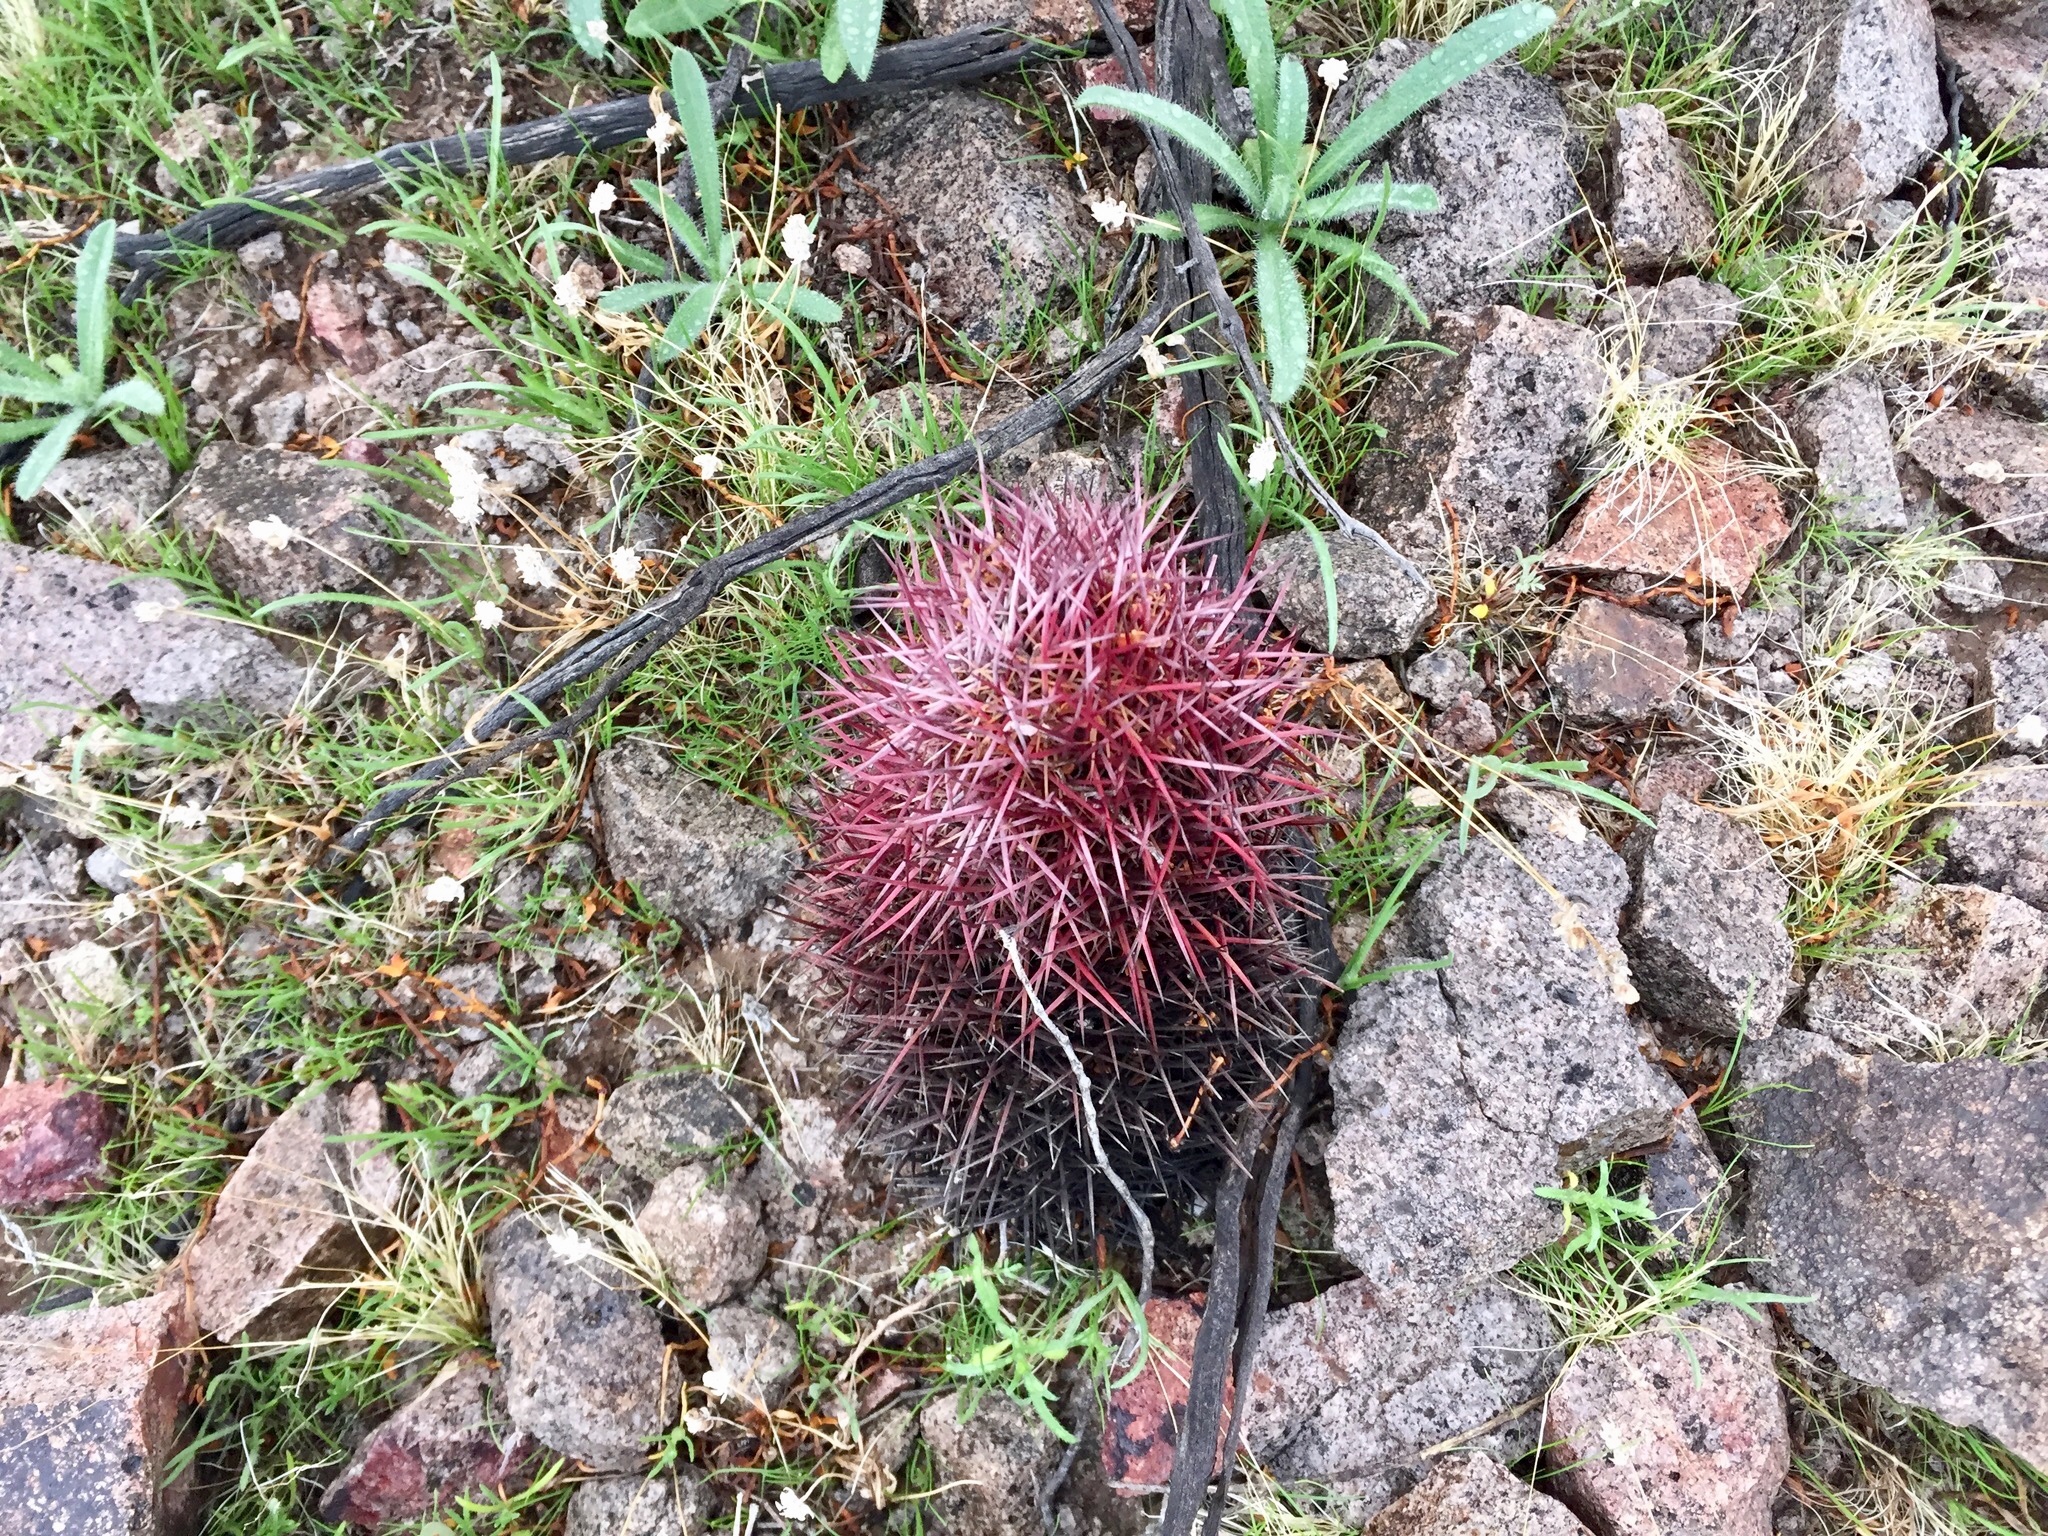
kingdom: Plantae
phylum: Tracheophyta
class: Magnoliopsida
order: Caryophyllales
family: Cactaceae
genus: Sclerocactus
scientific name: Sclerocactus johnsonii
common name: Eight-spine fishhook cactus
